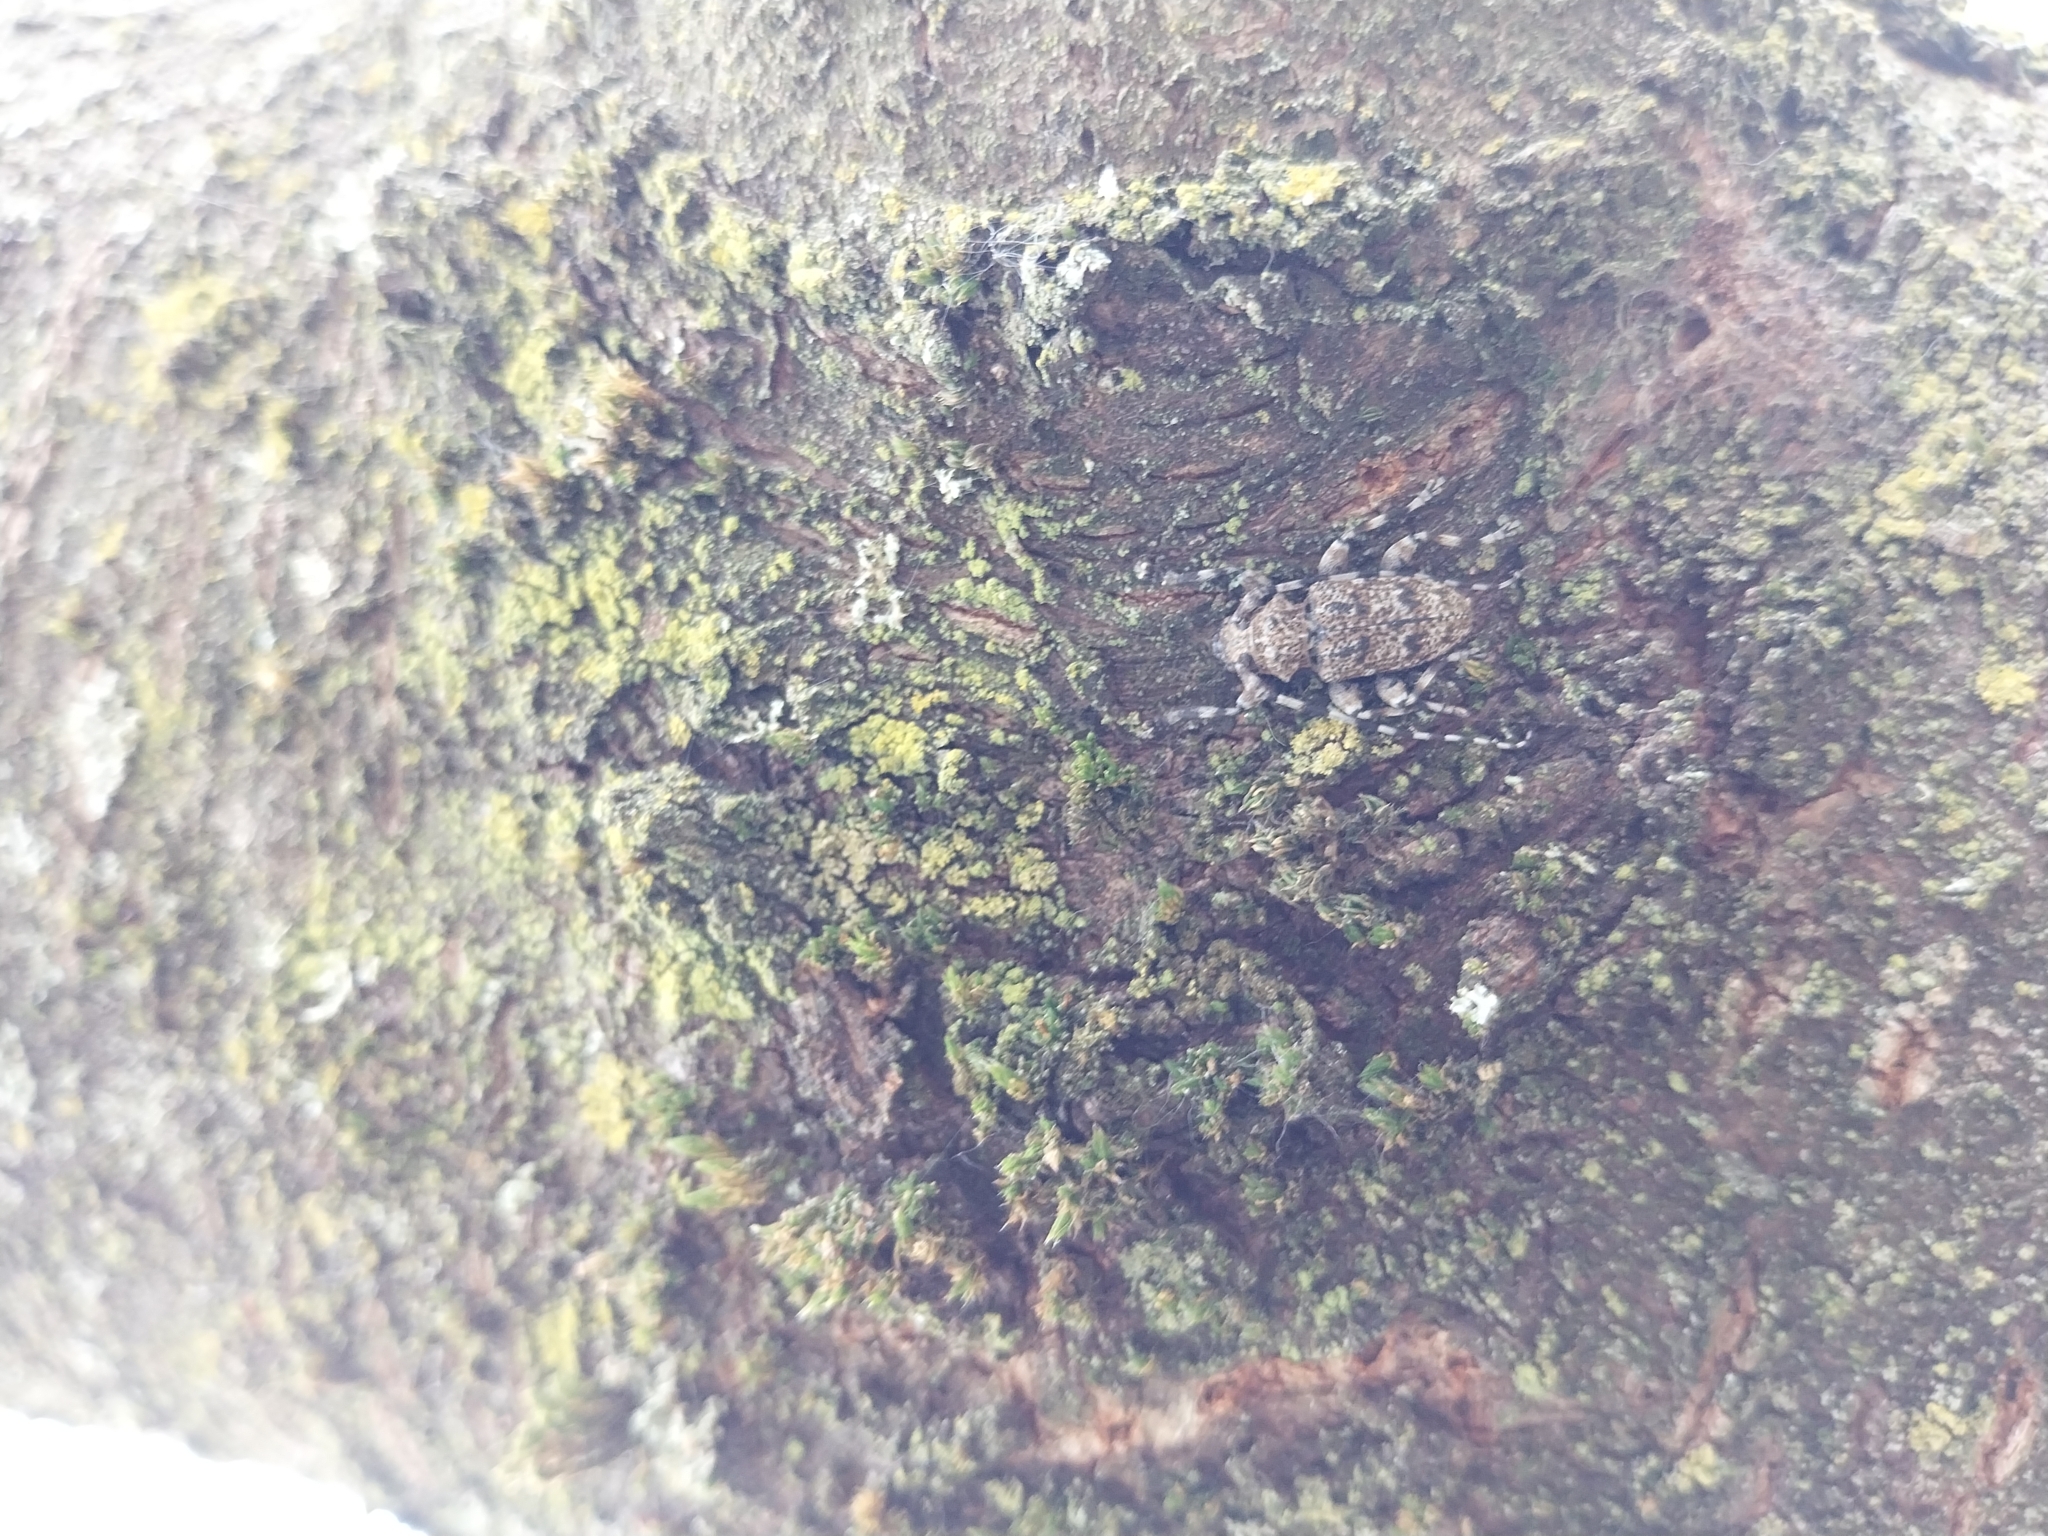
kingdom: Animalia
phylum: Arthropoda
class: Insecta
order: Coleoptera
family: Cerambycidae
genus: Aegomorphus
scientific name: Aegomorphus clavipes
